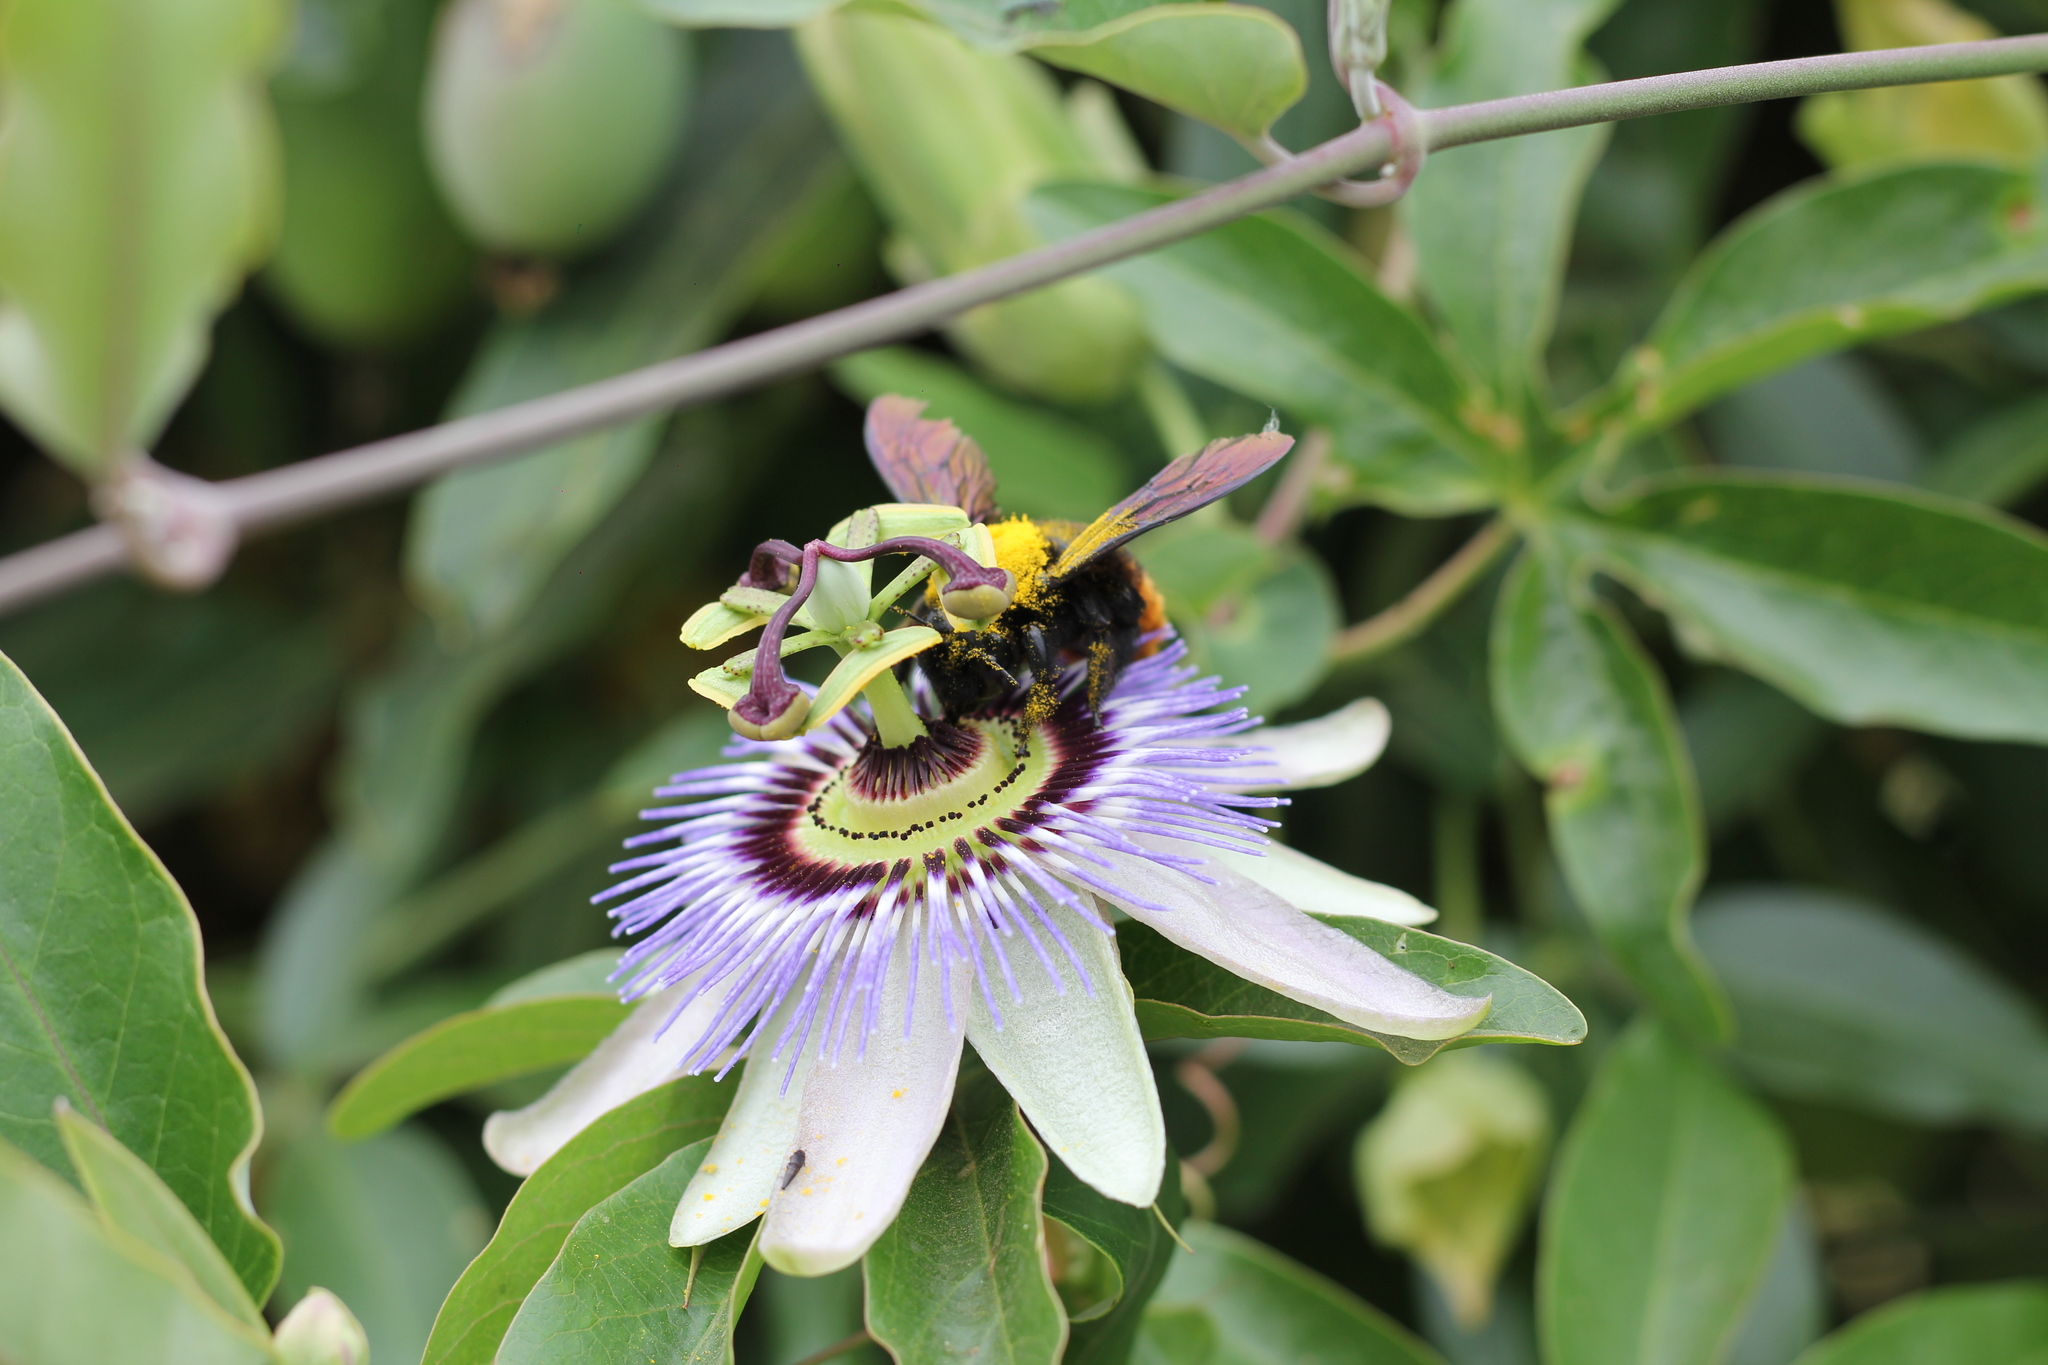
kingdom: Animalia
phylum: Arthropoda
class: Insecta
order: Hymenoptera
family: Apidae
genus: Xylocopa
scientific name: Xylocopa augusti
